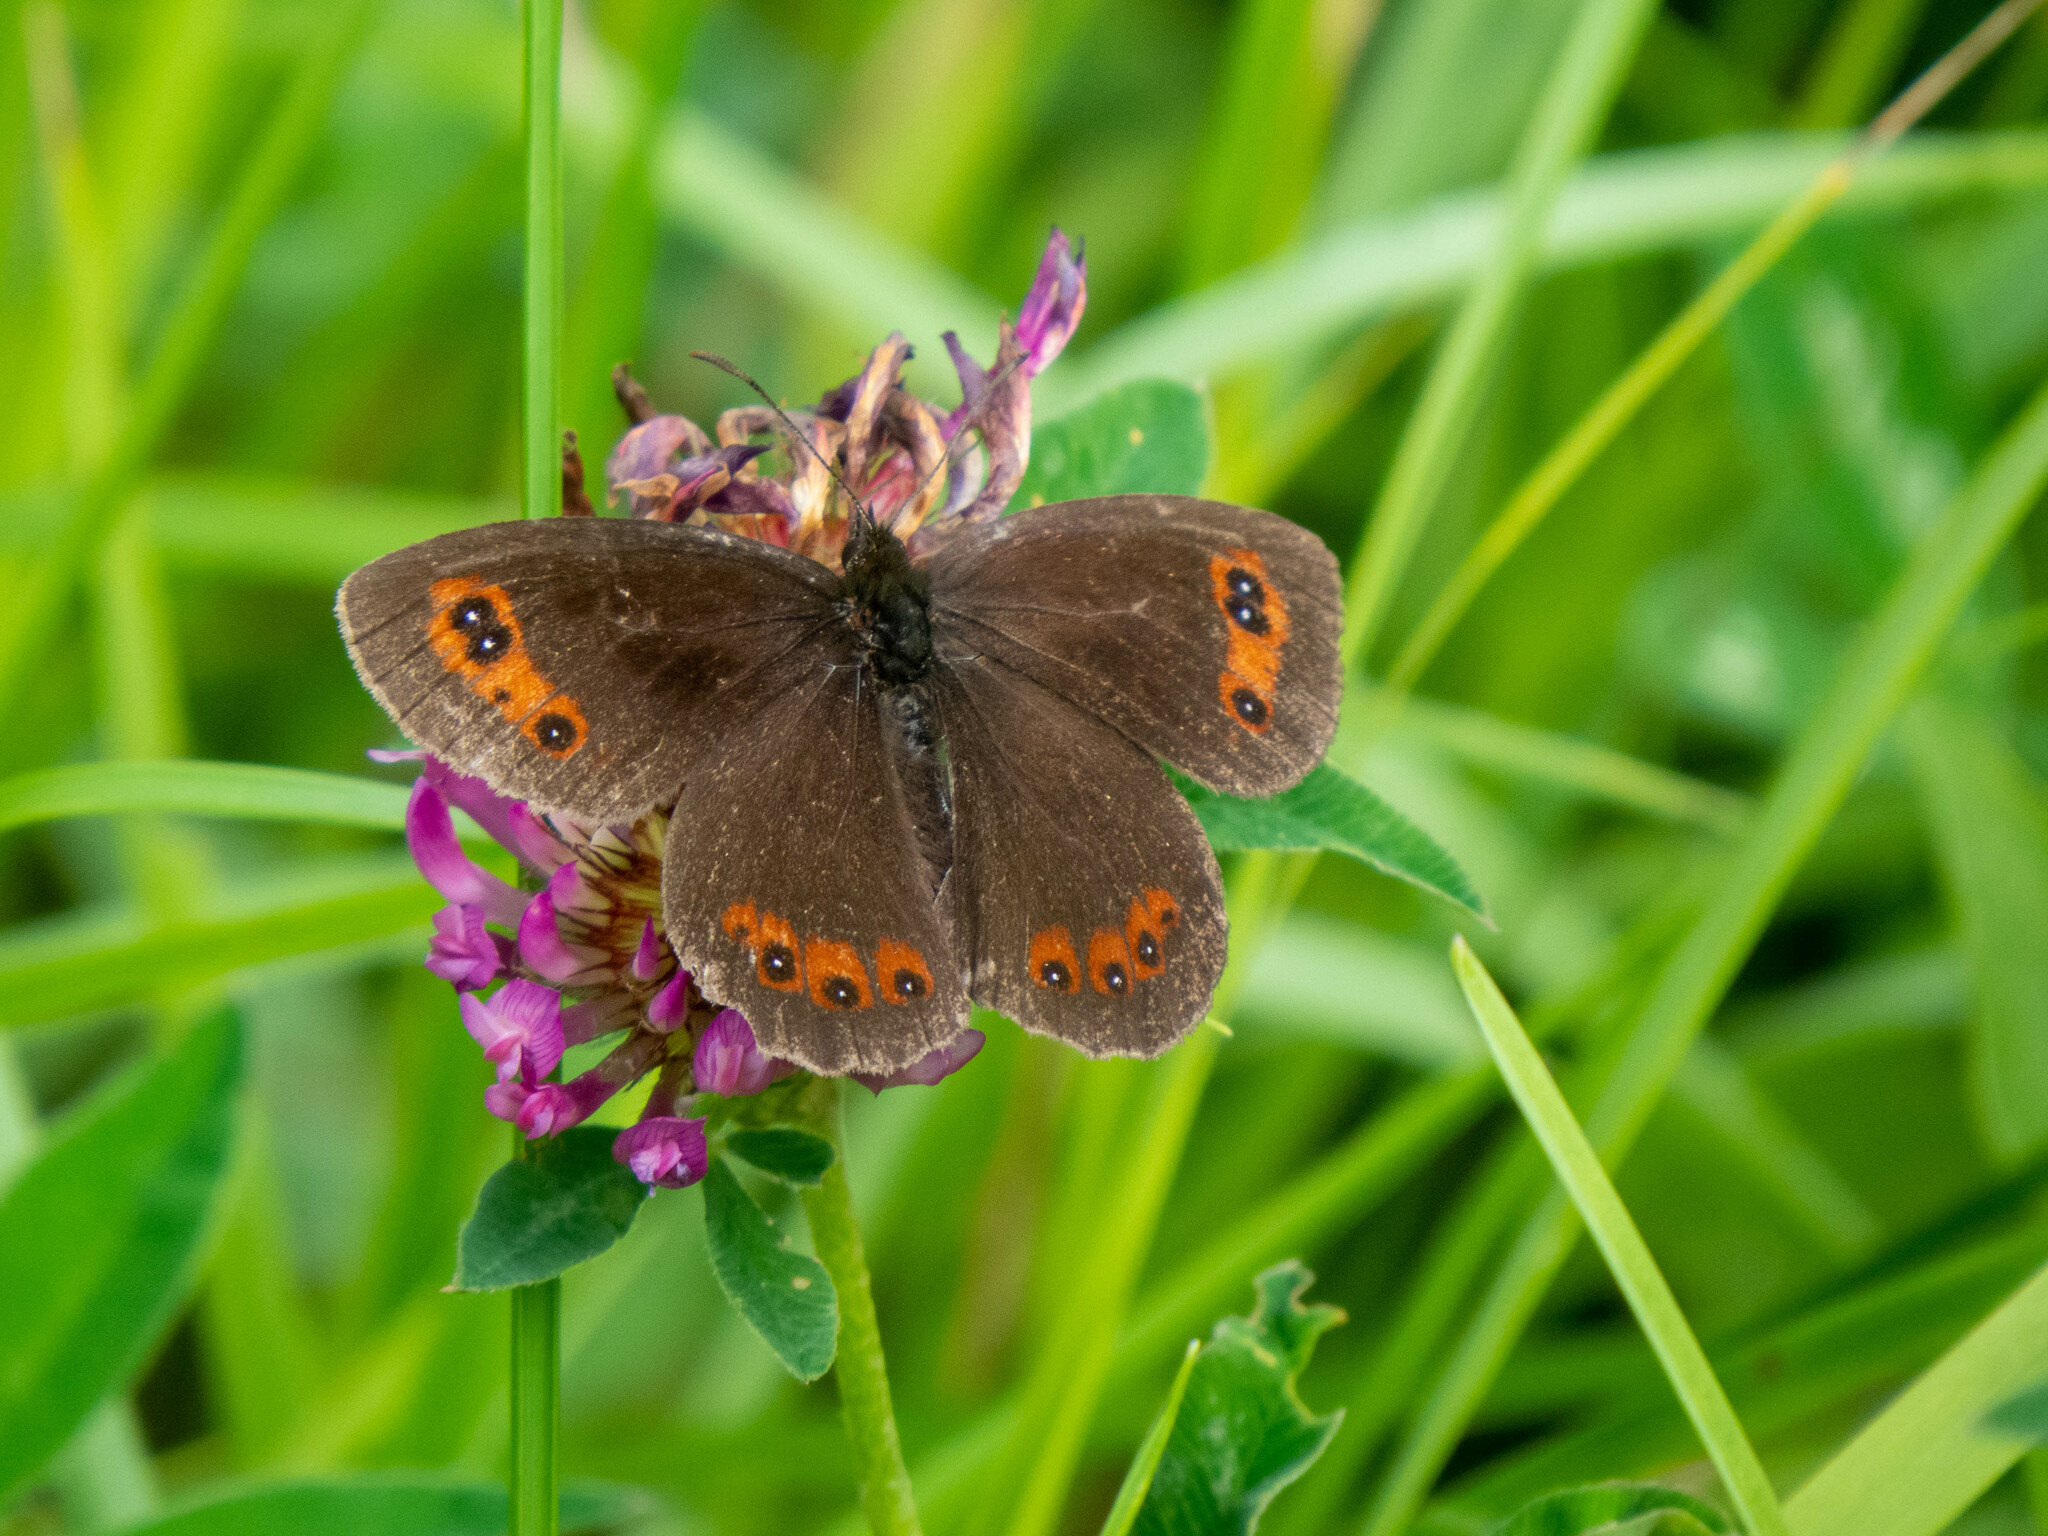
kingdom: Animalia
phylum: Arthropoda
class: Insecta
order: Lepidoptera
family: Nymphalidae
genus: Erebia
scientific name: Erebia aethiops
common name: Scotch argus
